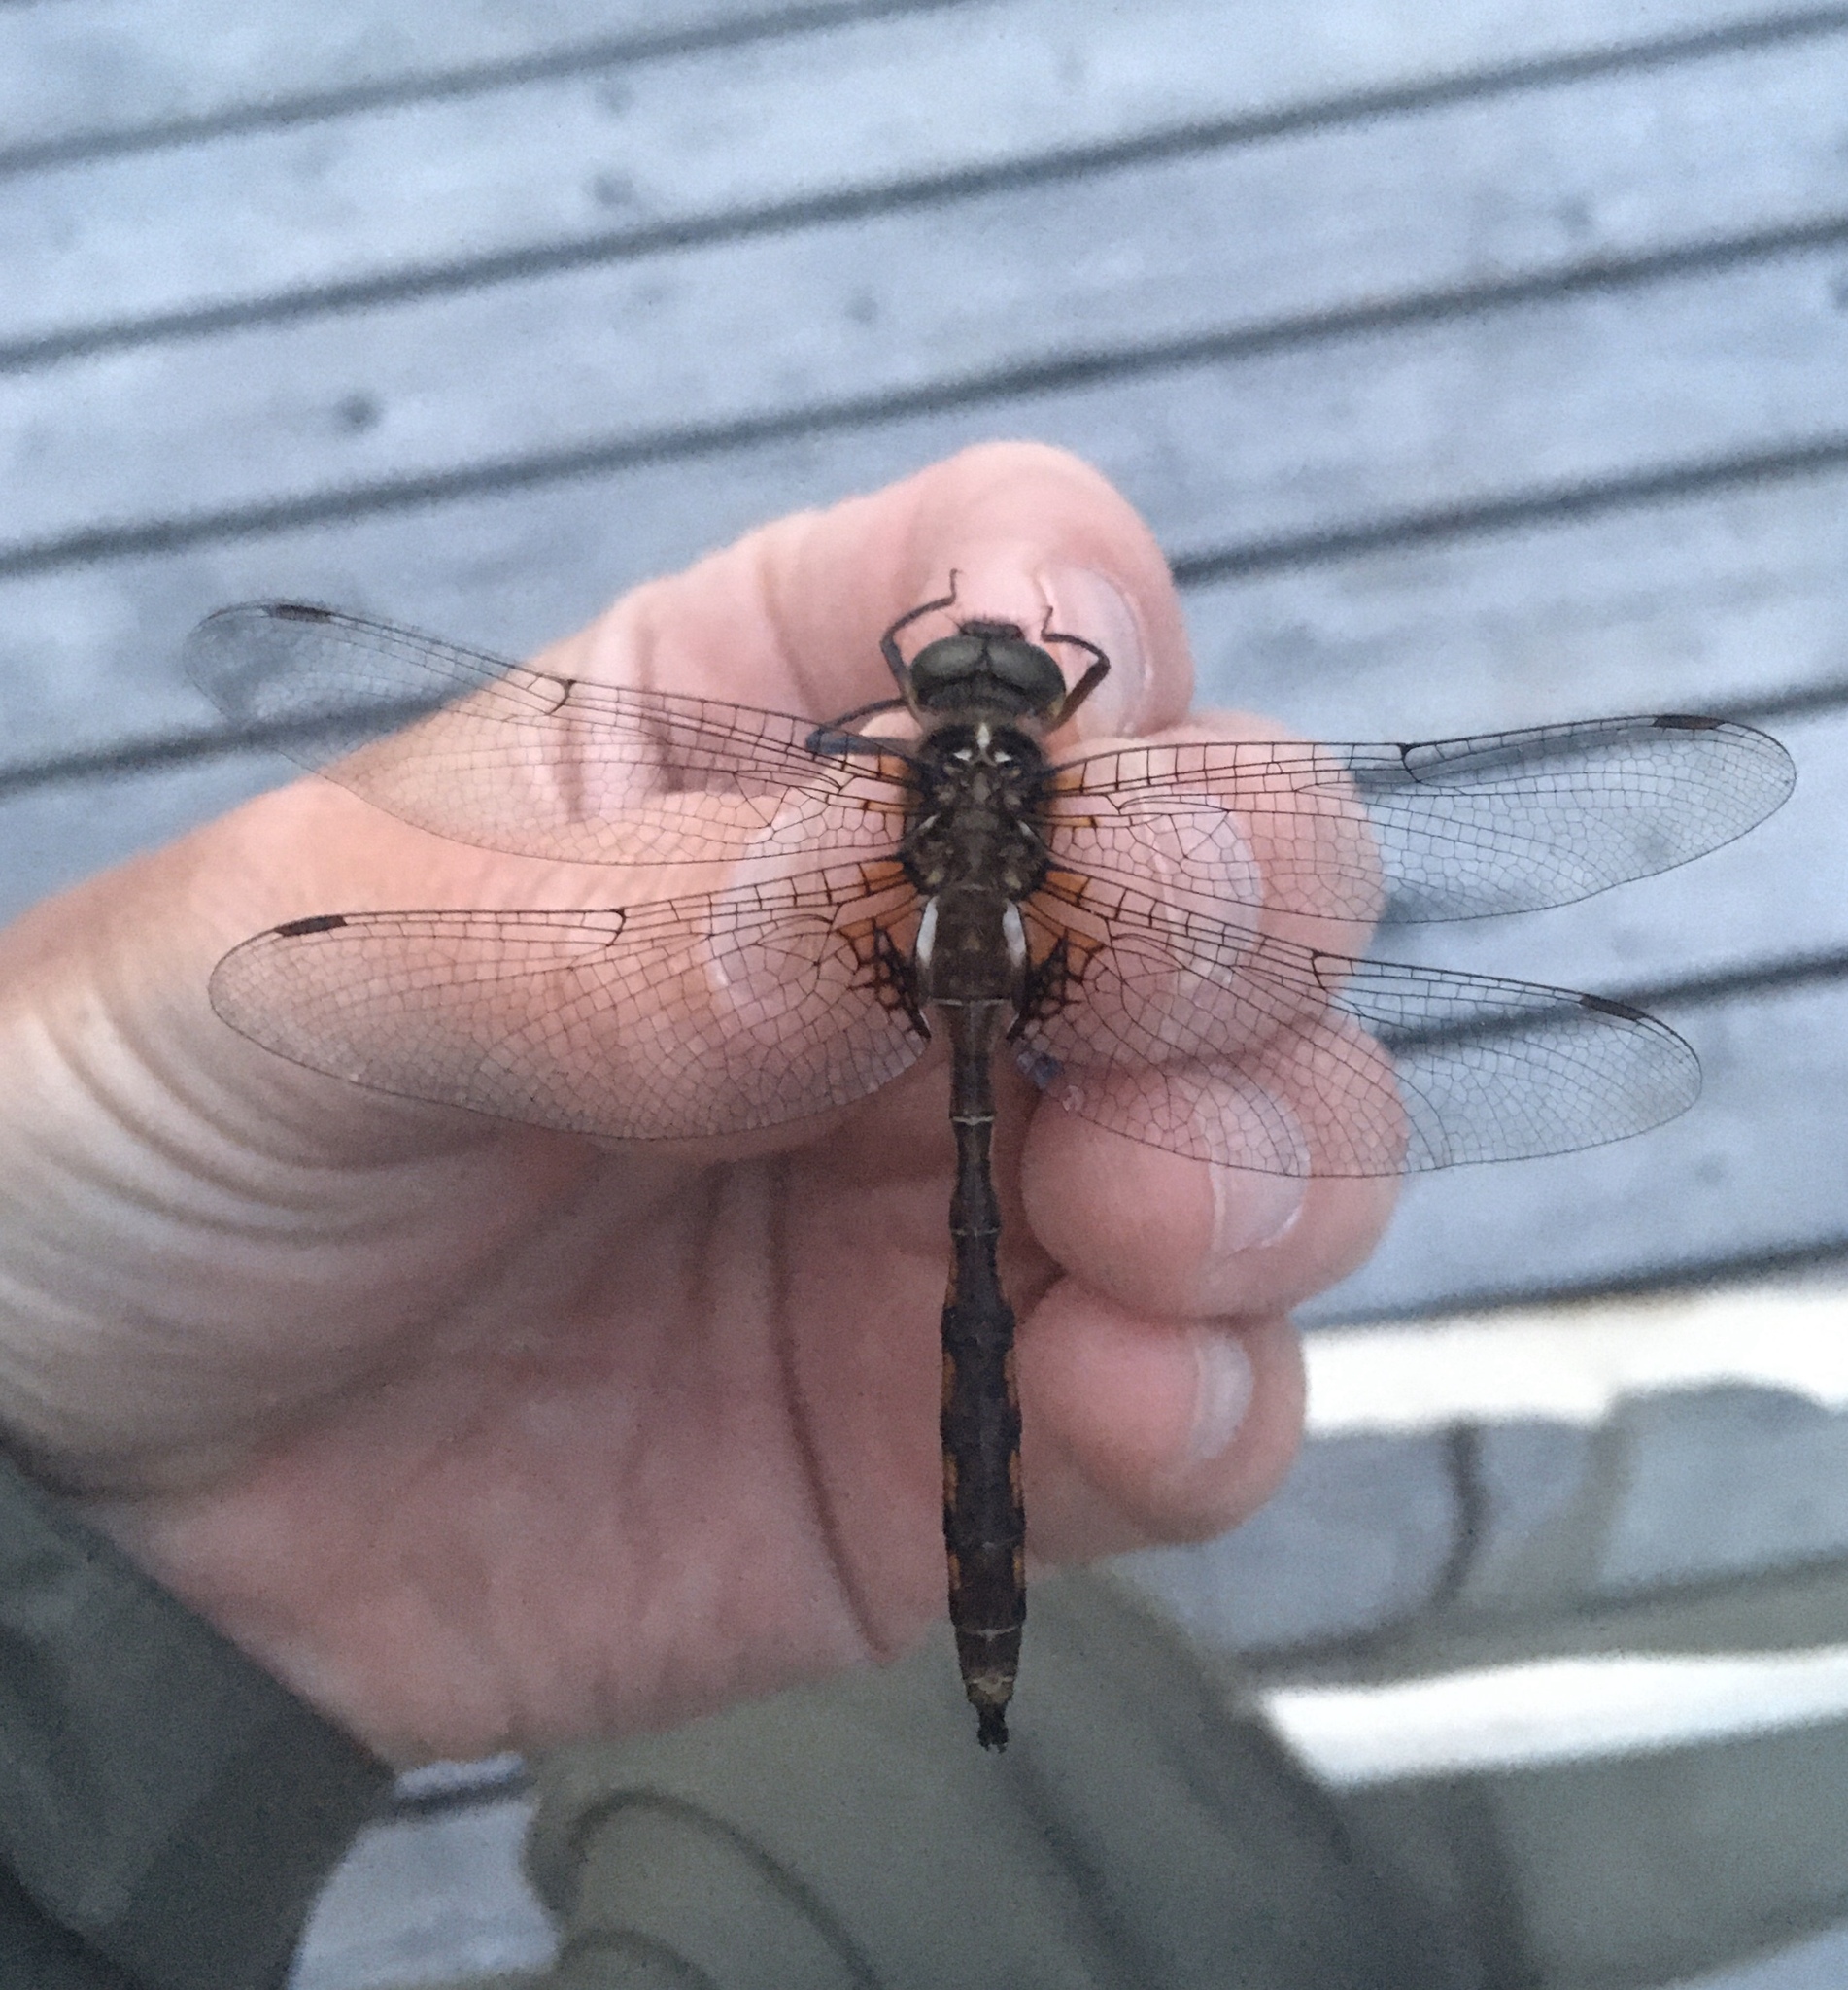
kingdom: Animalia
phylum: Arthropoda
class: Insecta
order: Odonata
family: Corduliidae
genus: Neurocordulia
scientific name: Neurocordulia yamaskanensis
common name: Stygian shadowdragon
